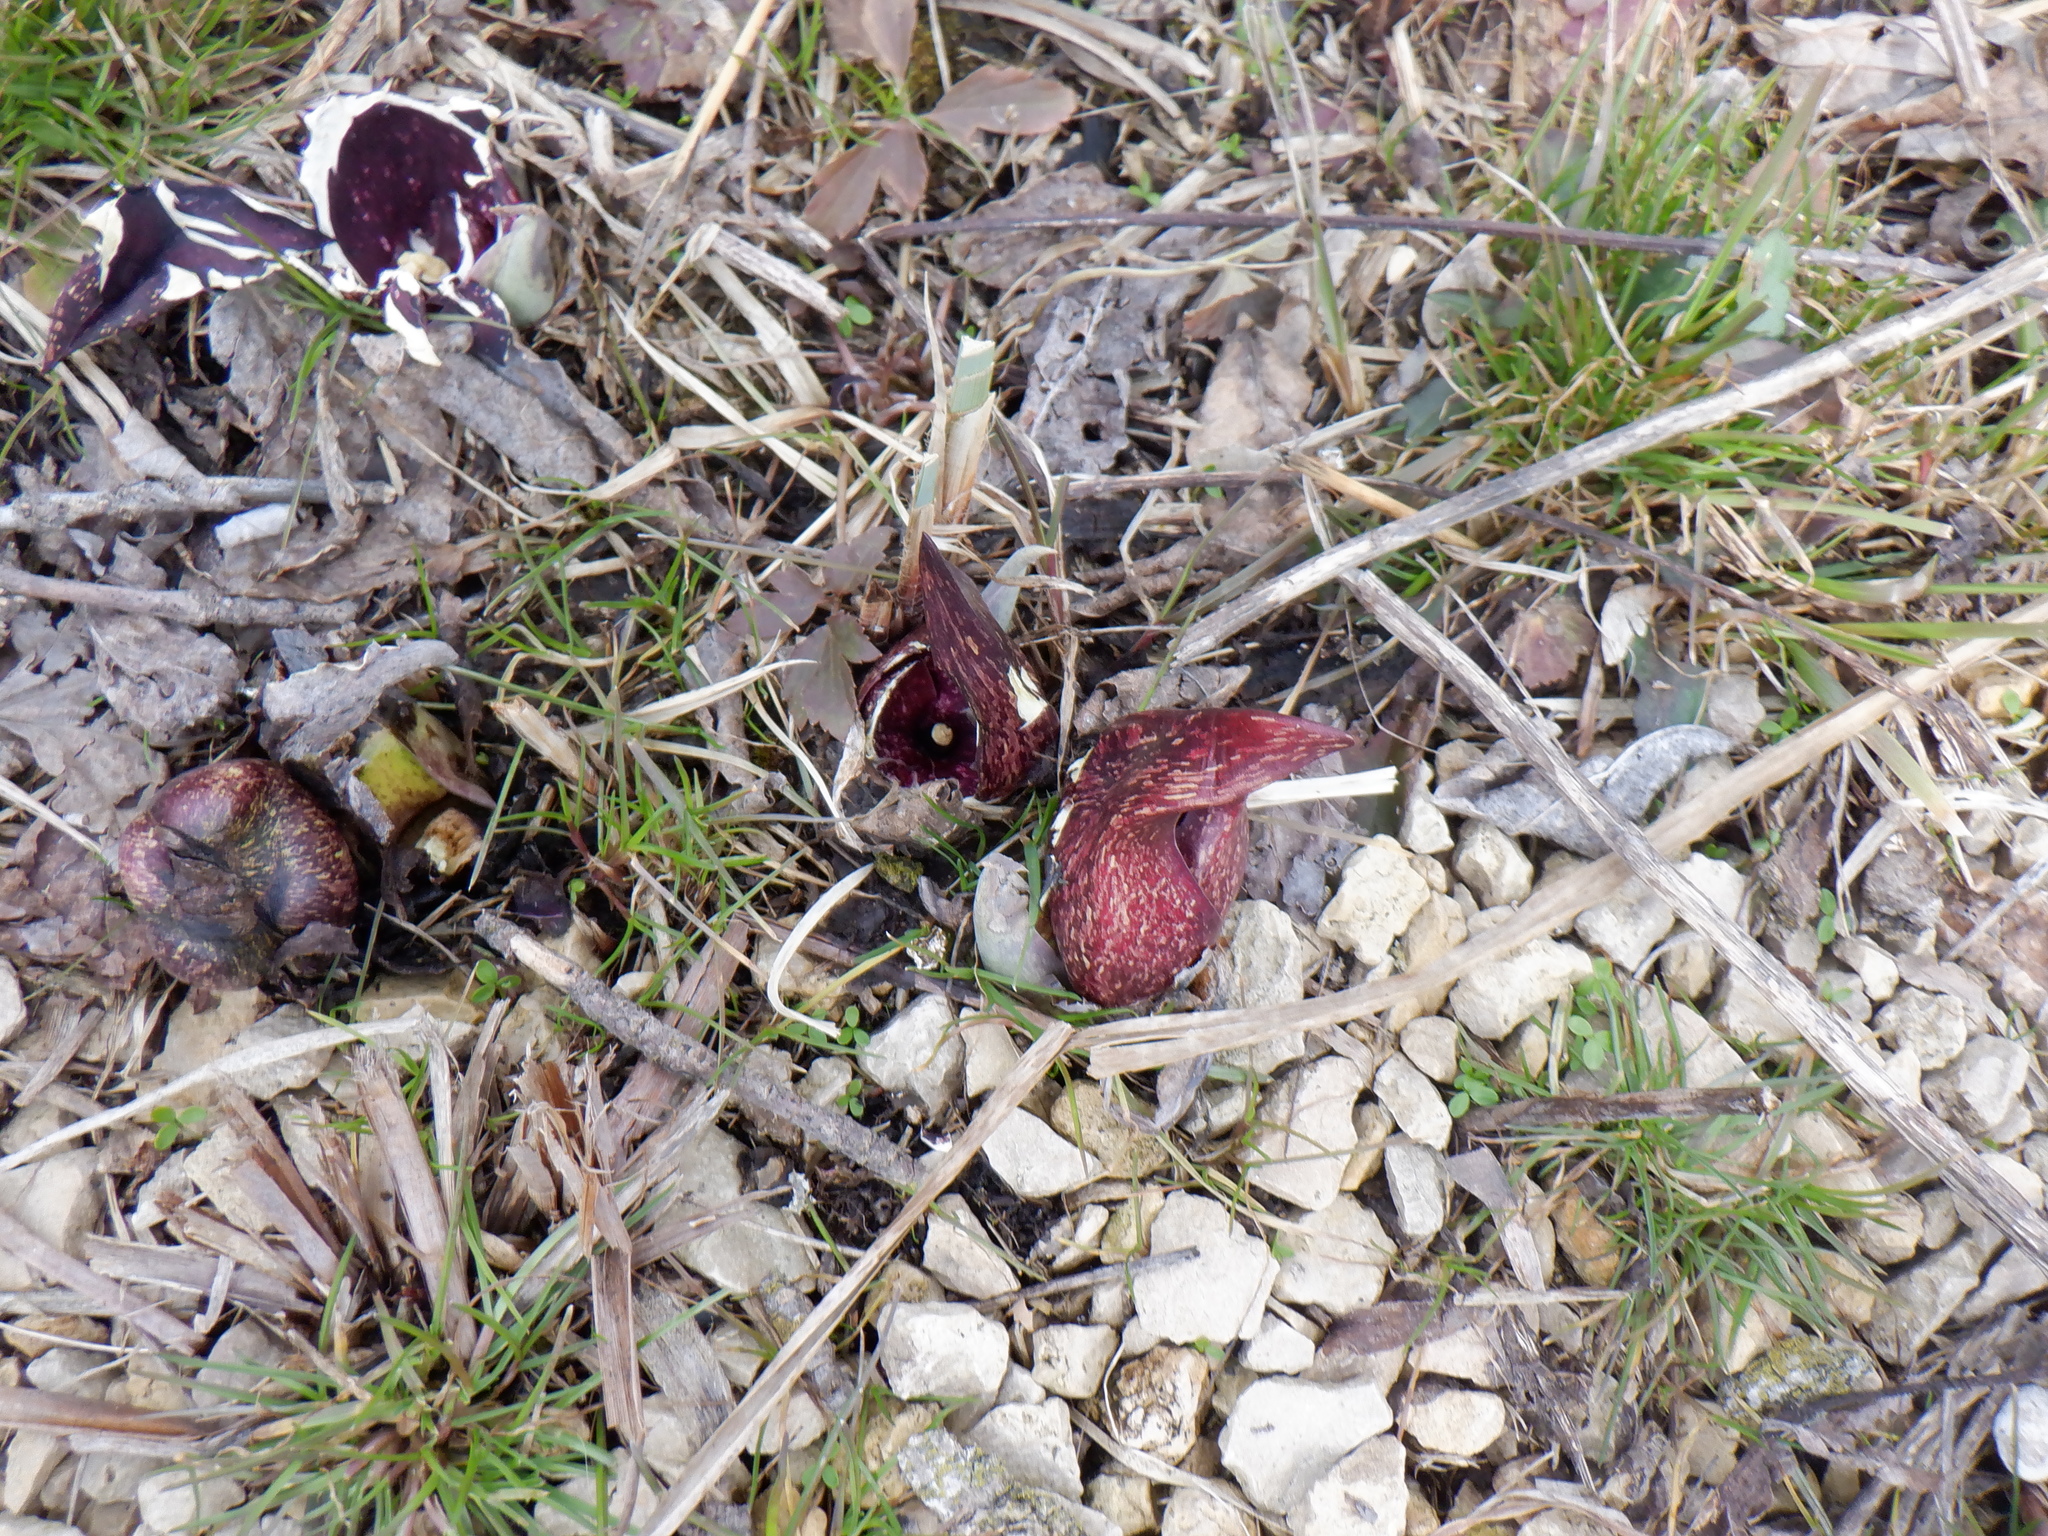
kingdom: Plantae
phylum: Tracheophyta
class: Liliopsida
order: Alismatales
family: Araceae
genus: Symplocarpus
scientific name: Symplocarpus foetidus
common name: Eastern skunk cabbage
